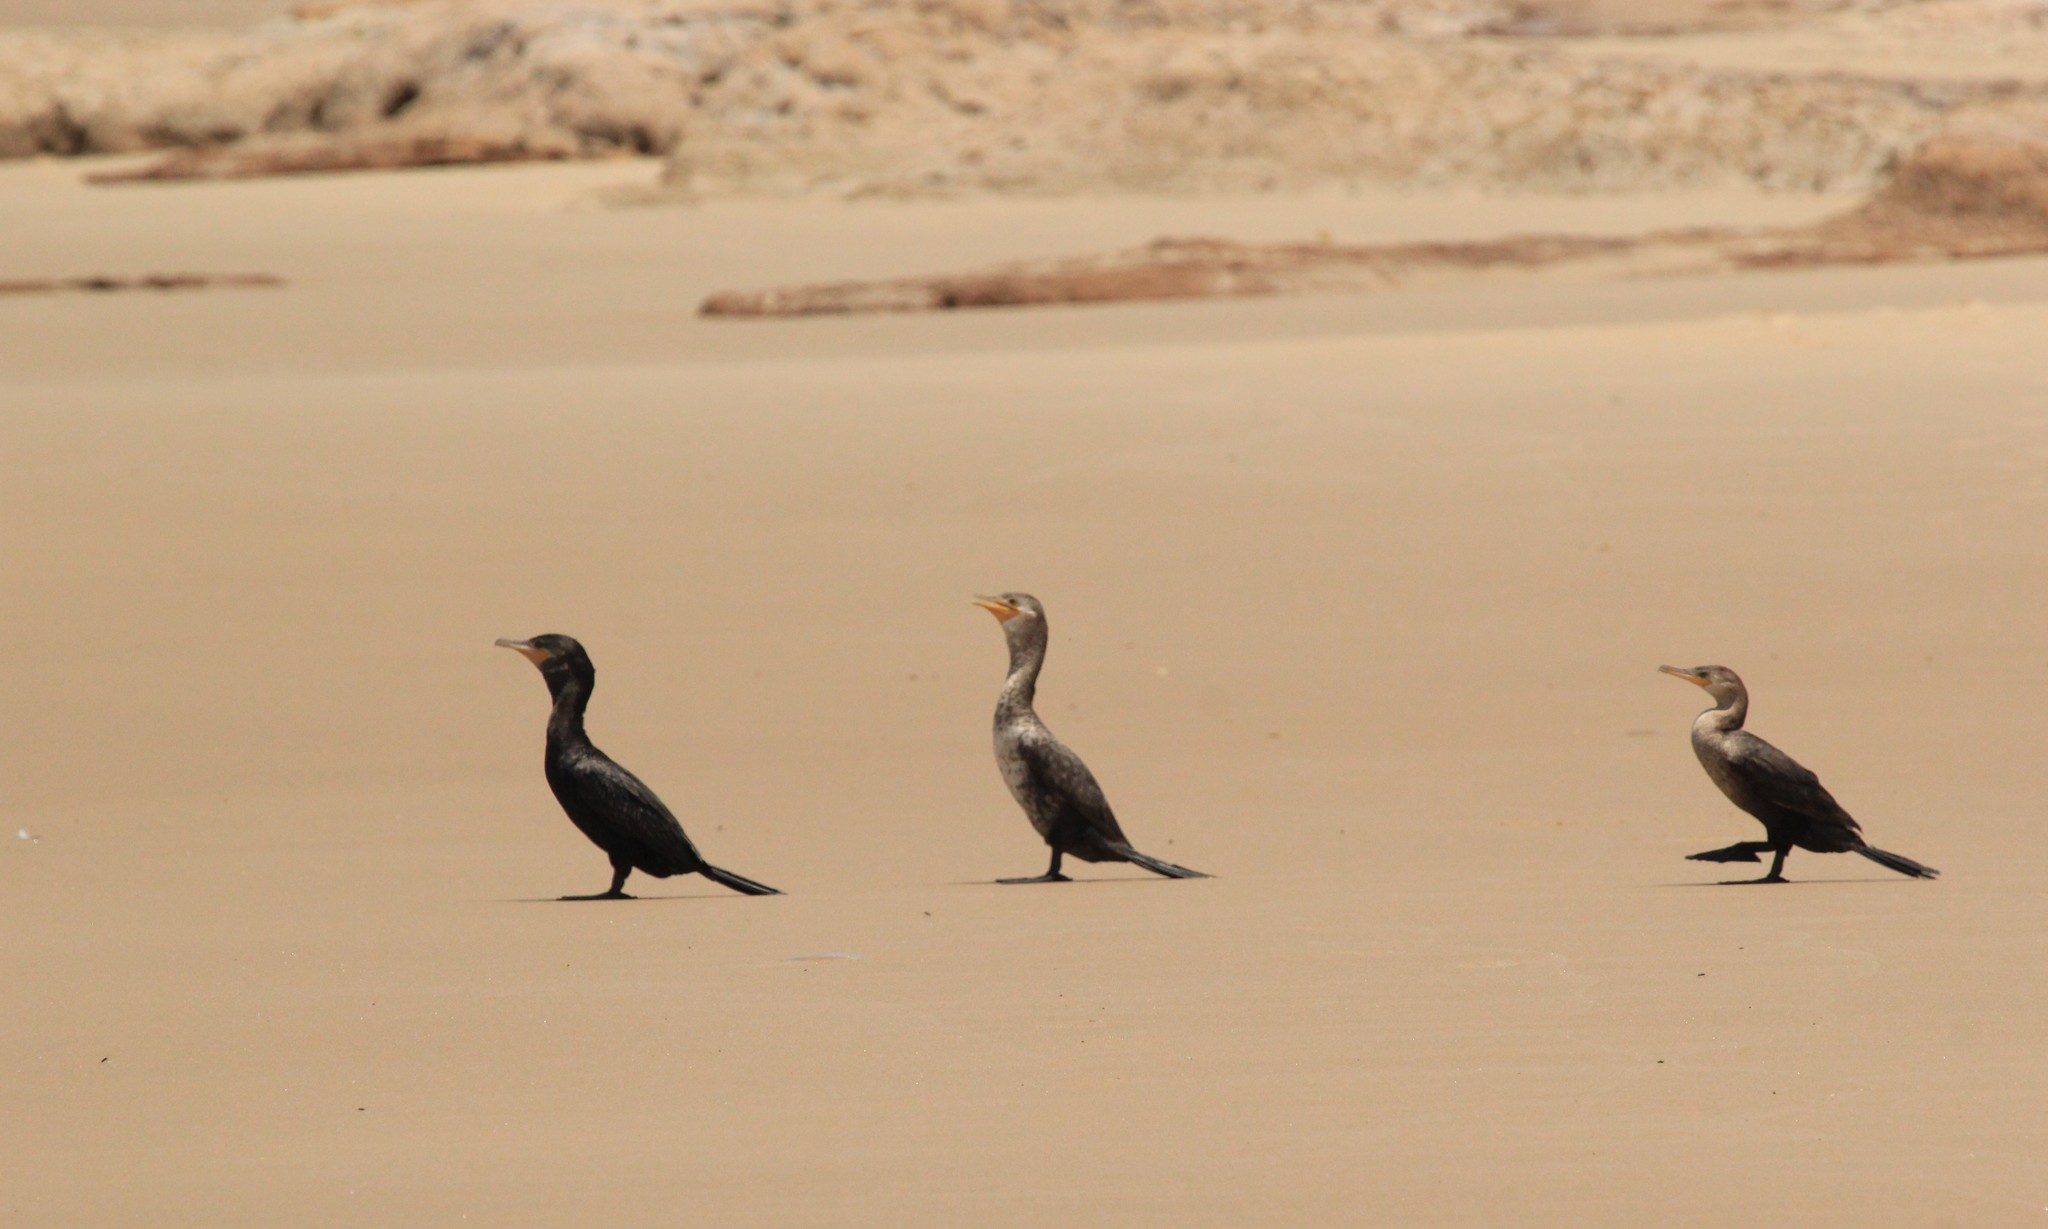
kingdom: Animalia
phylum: Chordata
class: Aves
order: Suliformes
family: Phalacrocoracidae
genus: Phalacrocorax
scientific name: Phalacrocorax brasilianus
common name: Neotropic cormorant
